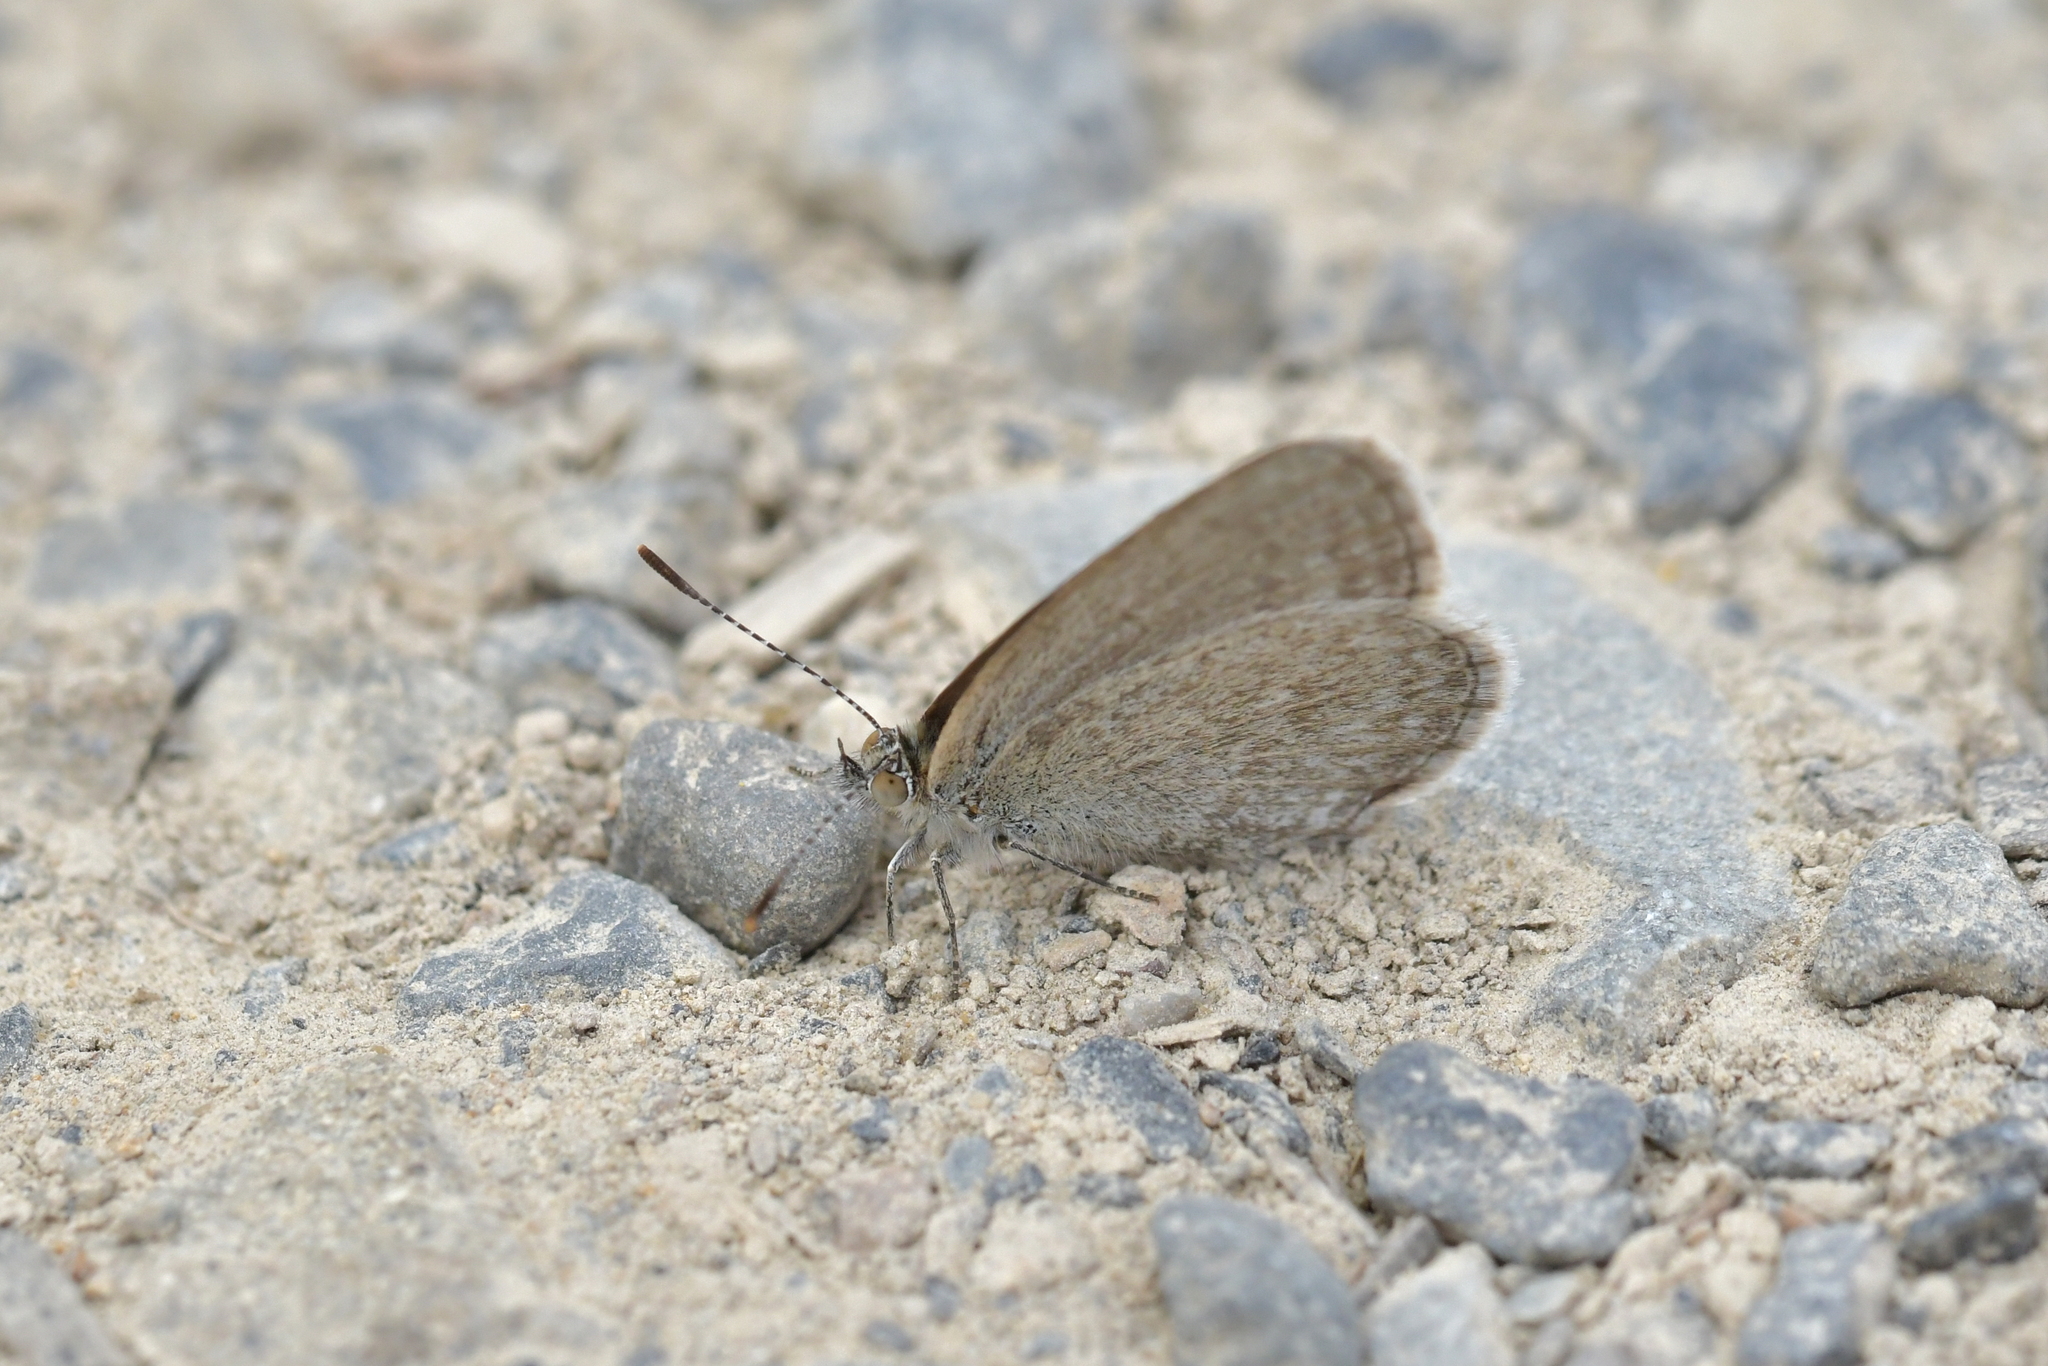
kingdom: Animalia
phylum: Arthropoda
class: Insecta
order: Lepidoptera
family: Lycaenidae
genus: Zizina
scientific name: Zizina otis
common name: Lesser grass blue
